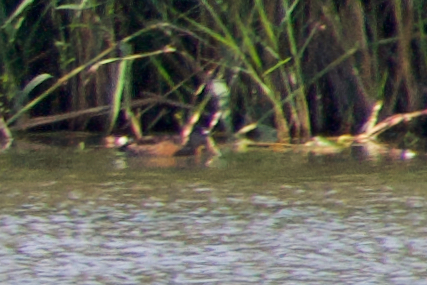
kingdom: Animalia
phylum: Chordata
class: Aves
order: Anseriformes
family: Anatidae
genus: Spatula
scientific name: Spatula clypeata
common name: Northern shoveler
